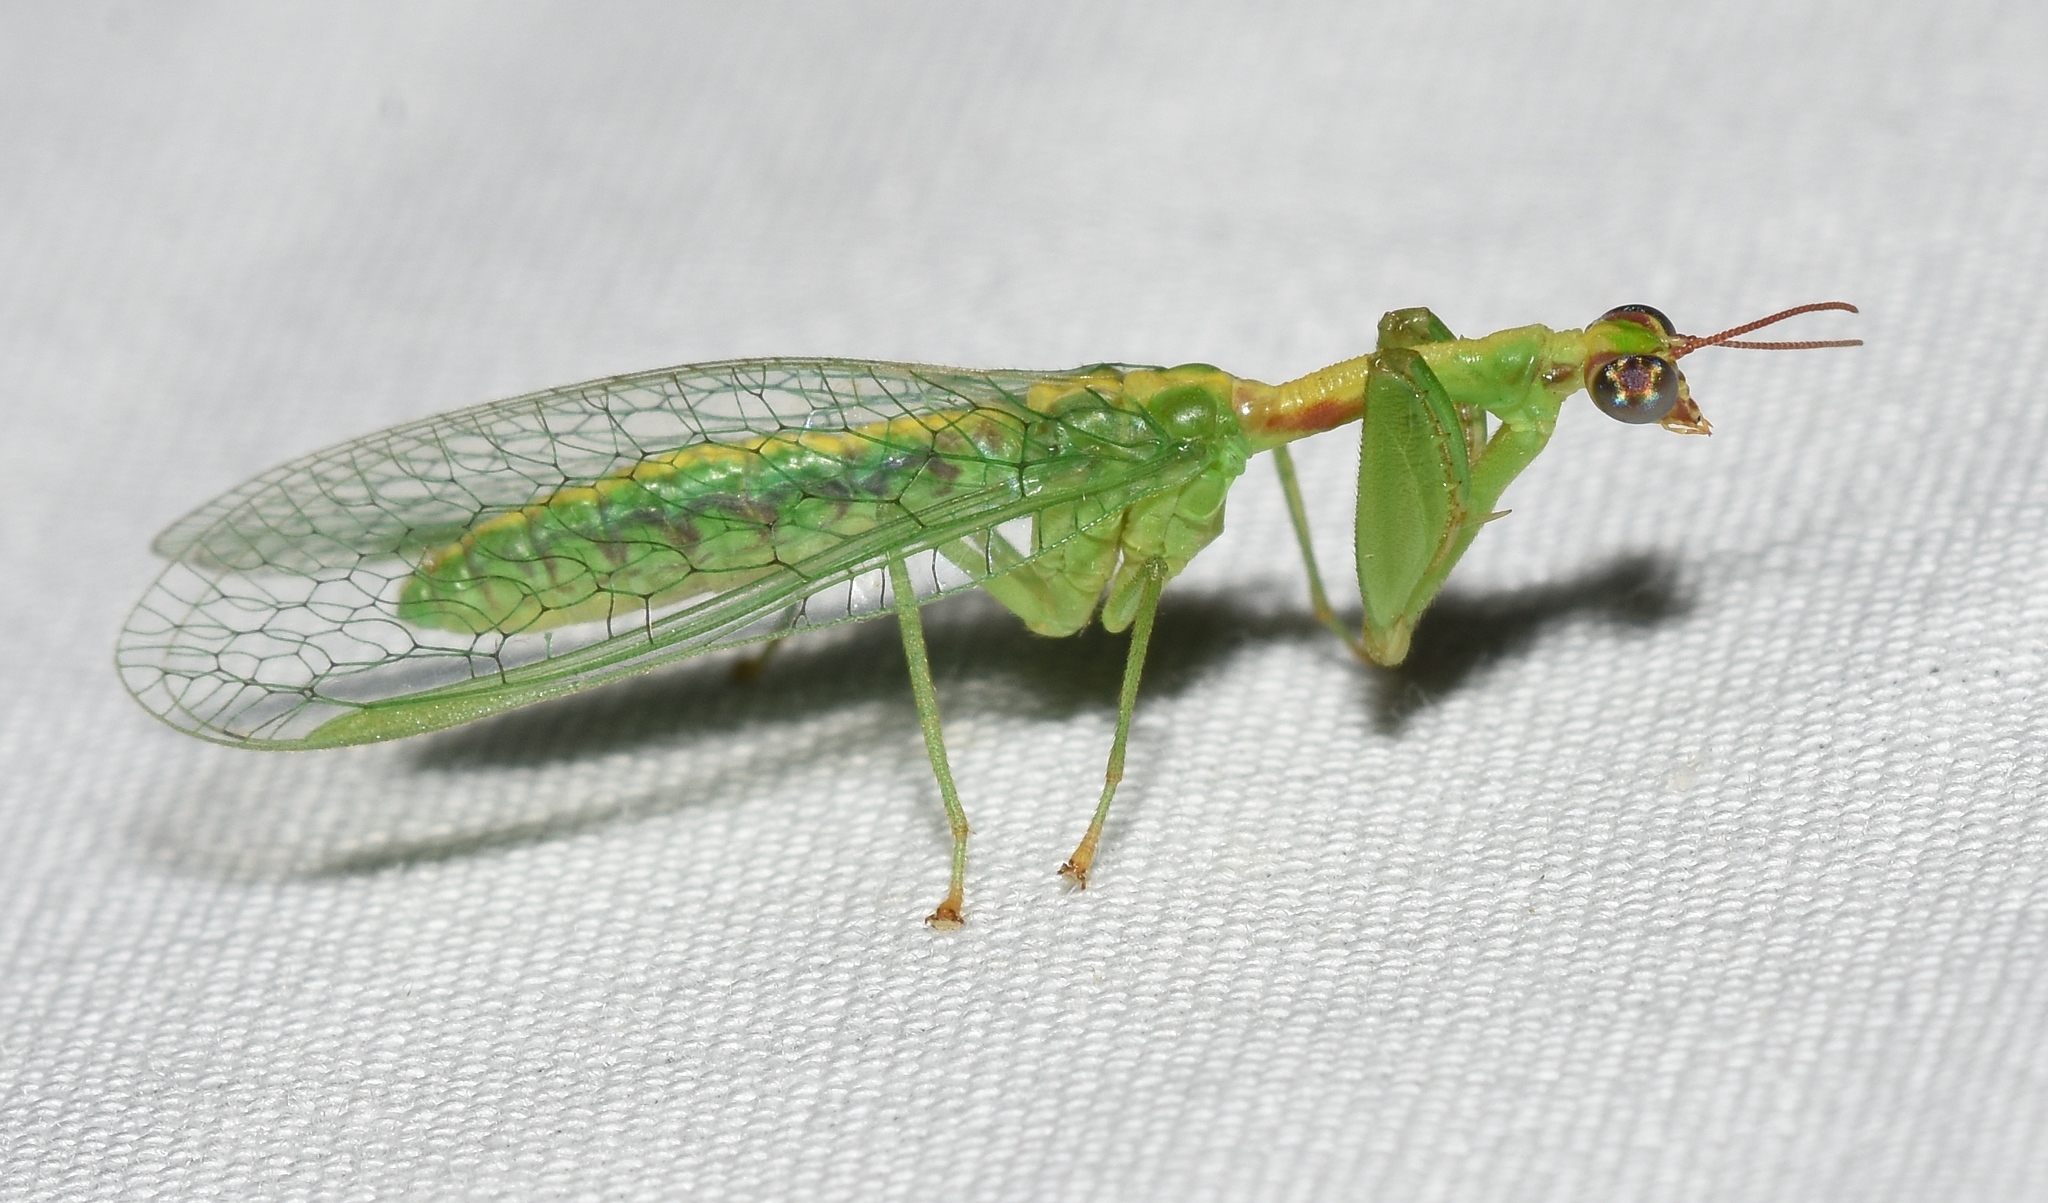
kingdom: Animalia
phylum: Arthropoda
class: Insecta
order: Neuroptera
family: Mantispidae
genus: Zeugomantispa
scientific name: Zeugomantispa minuta
